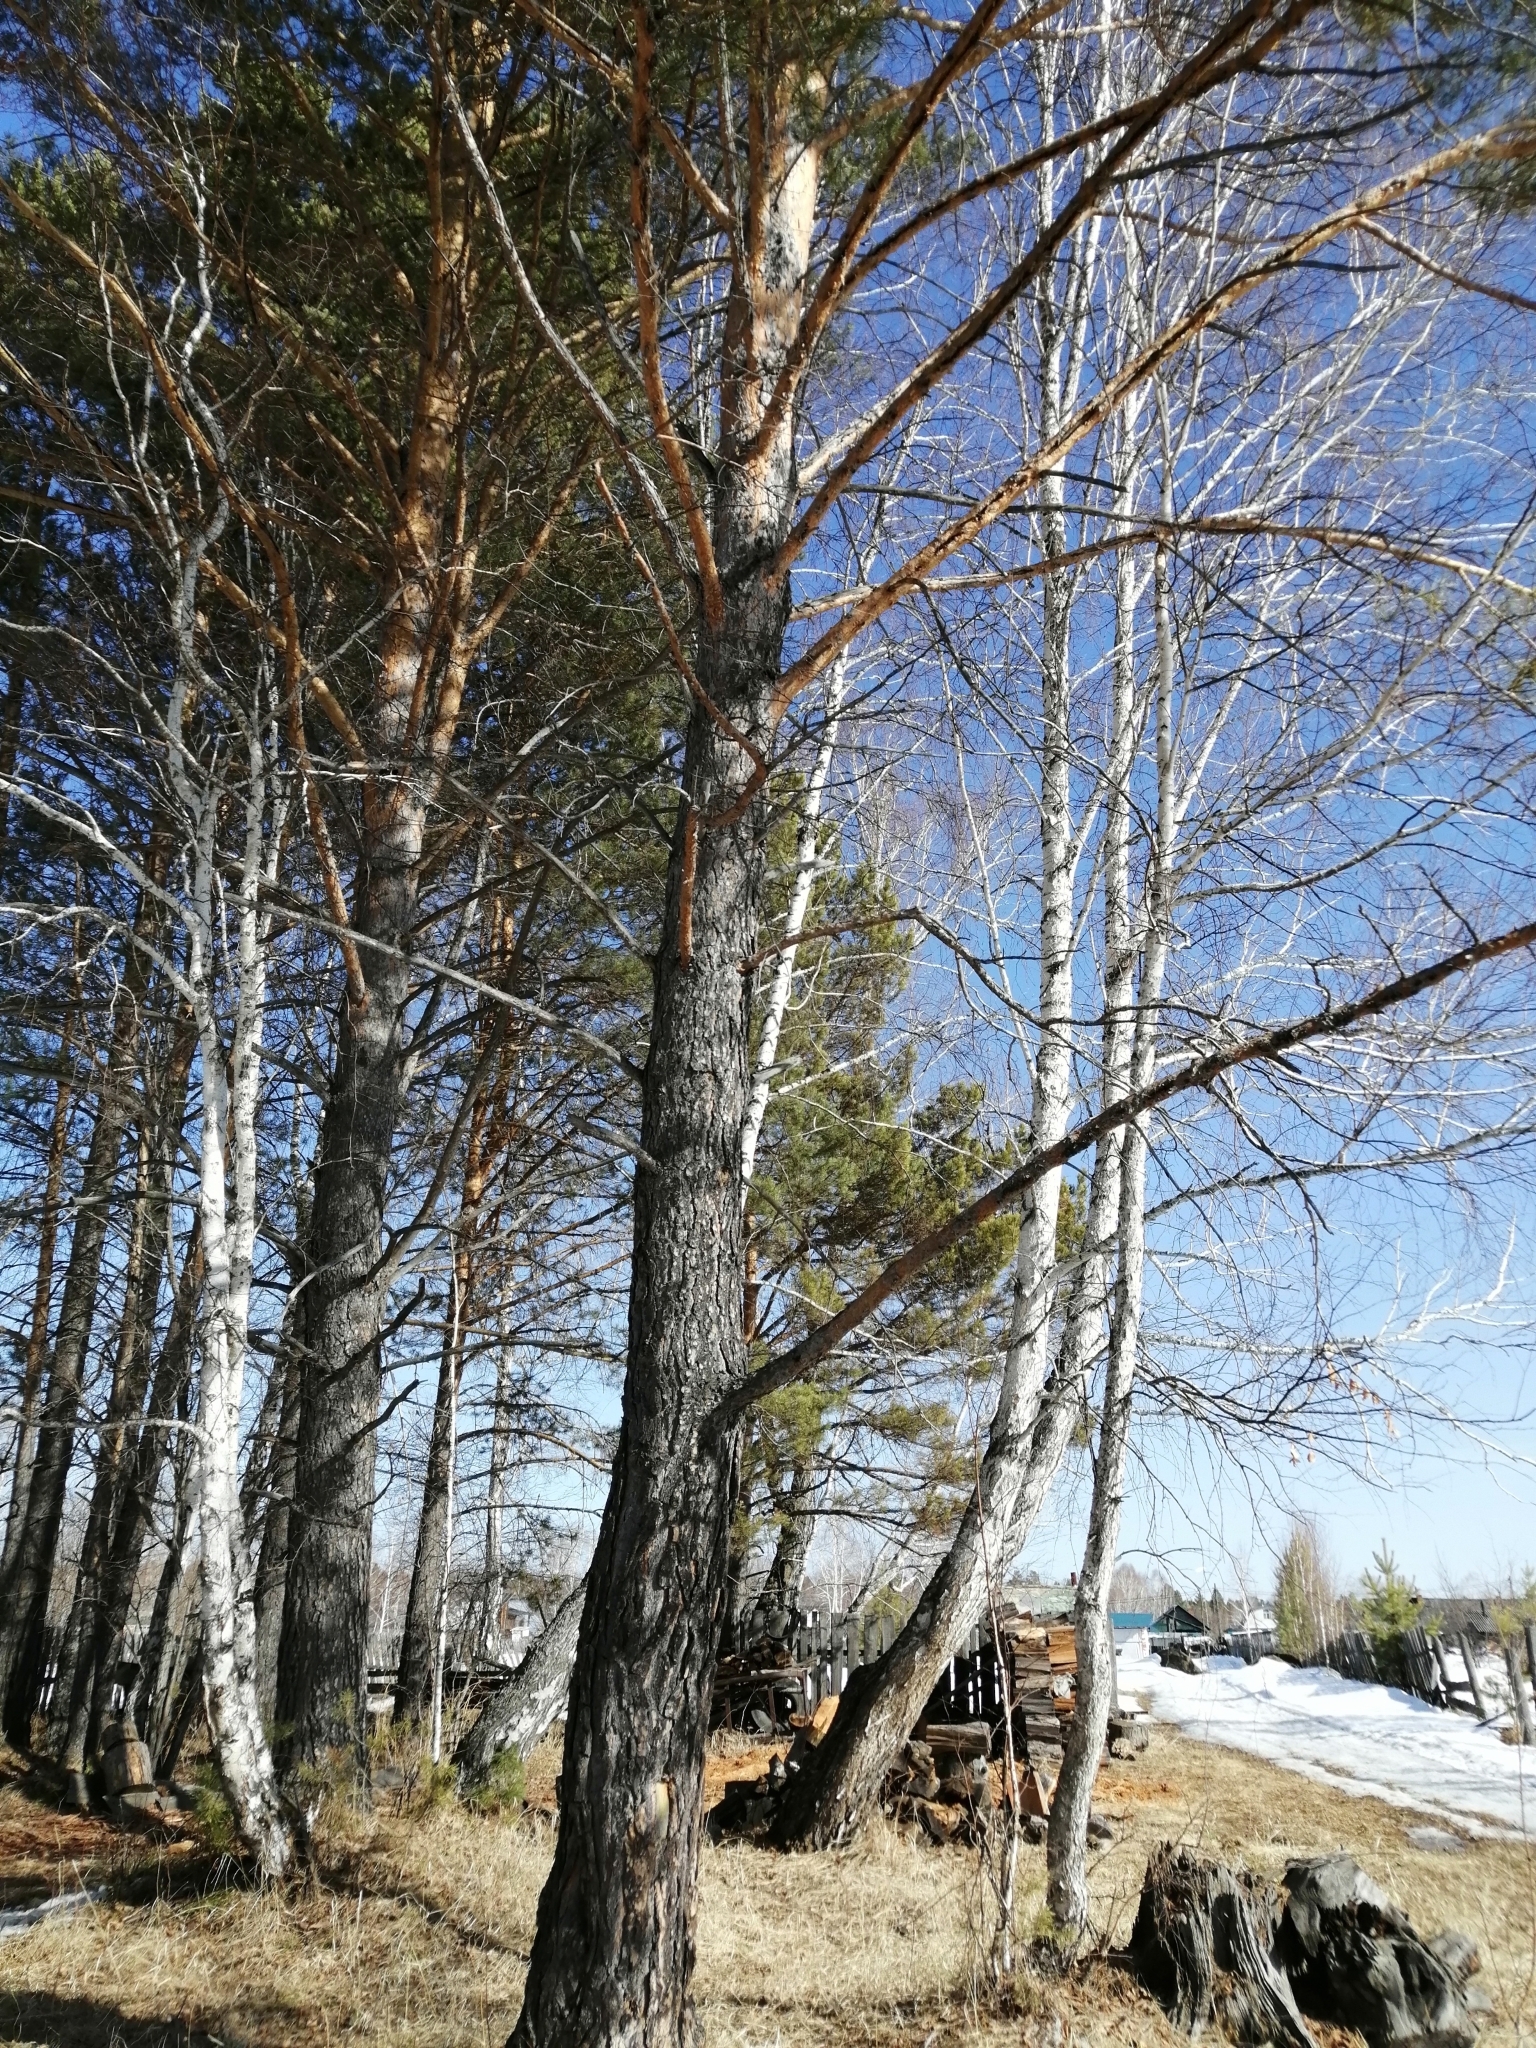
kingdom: Plantae
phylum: Tracheophyta
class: Pinopsida
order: Pinales
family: Pinaceae
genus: Pinus
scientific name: Pinus sylvestris
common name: Scots pine
